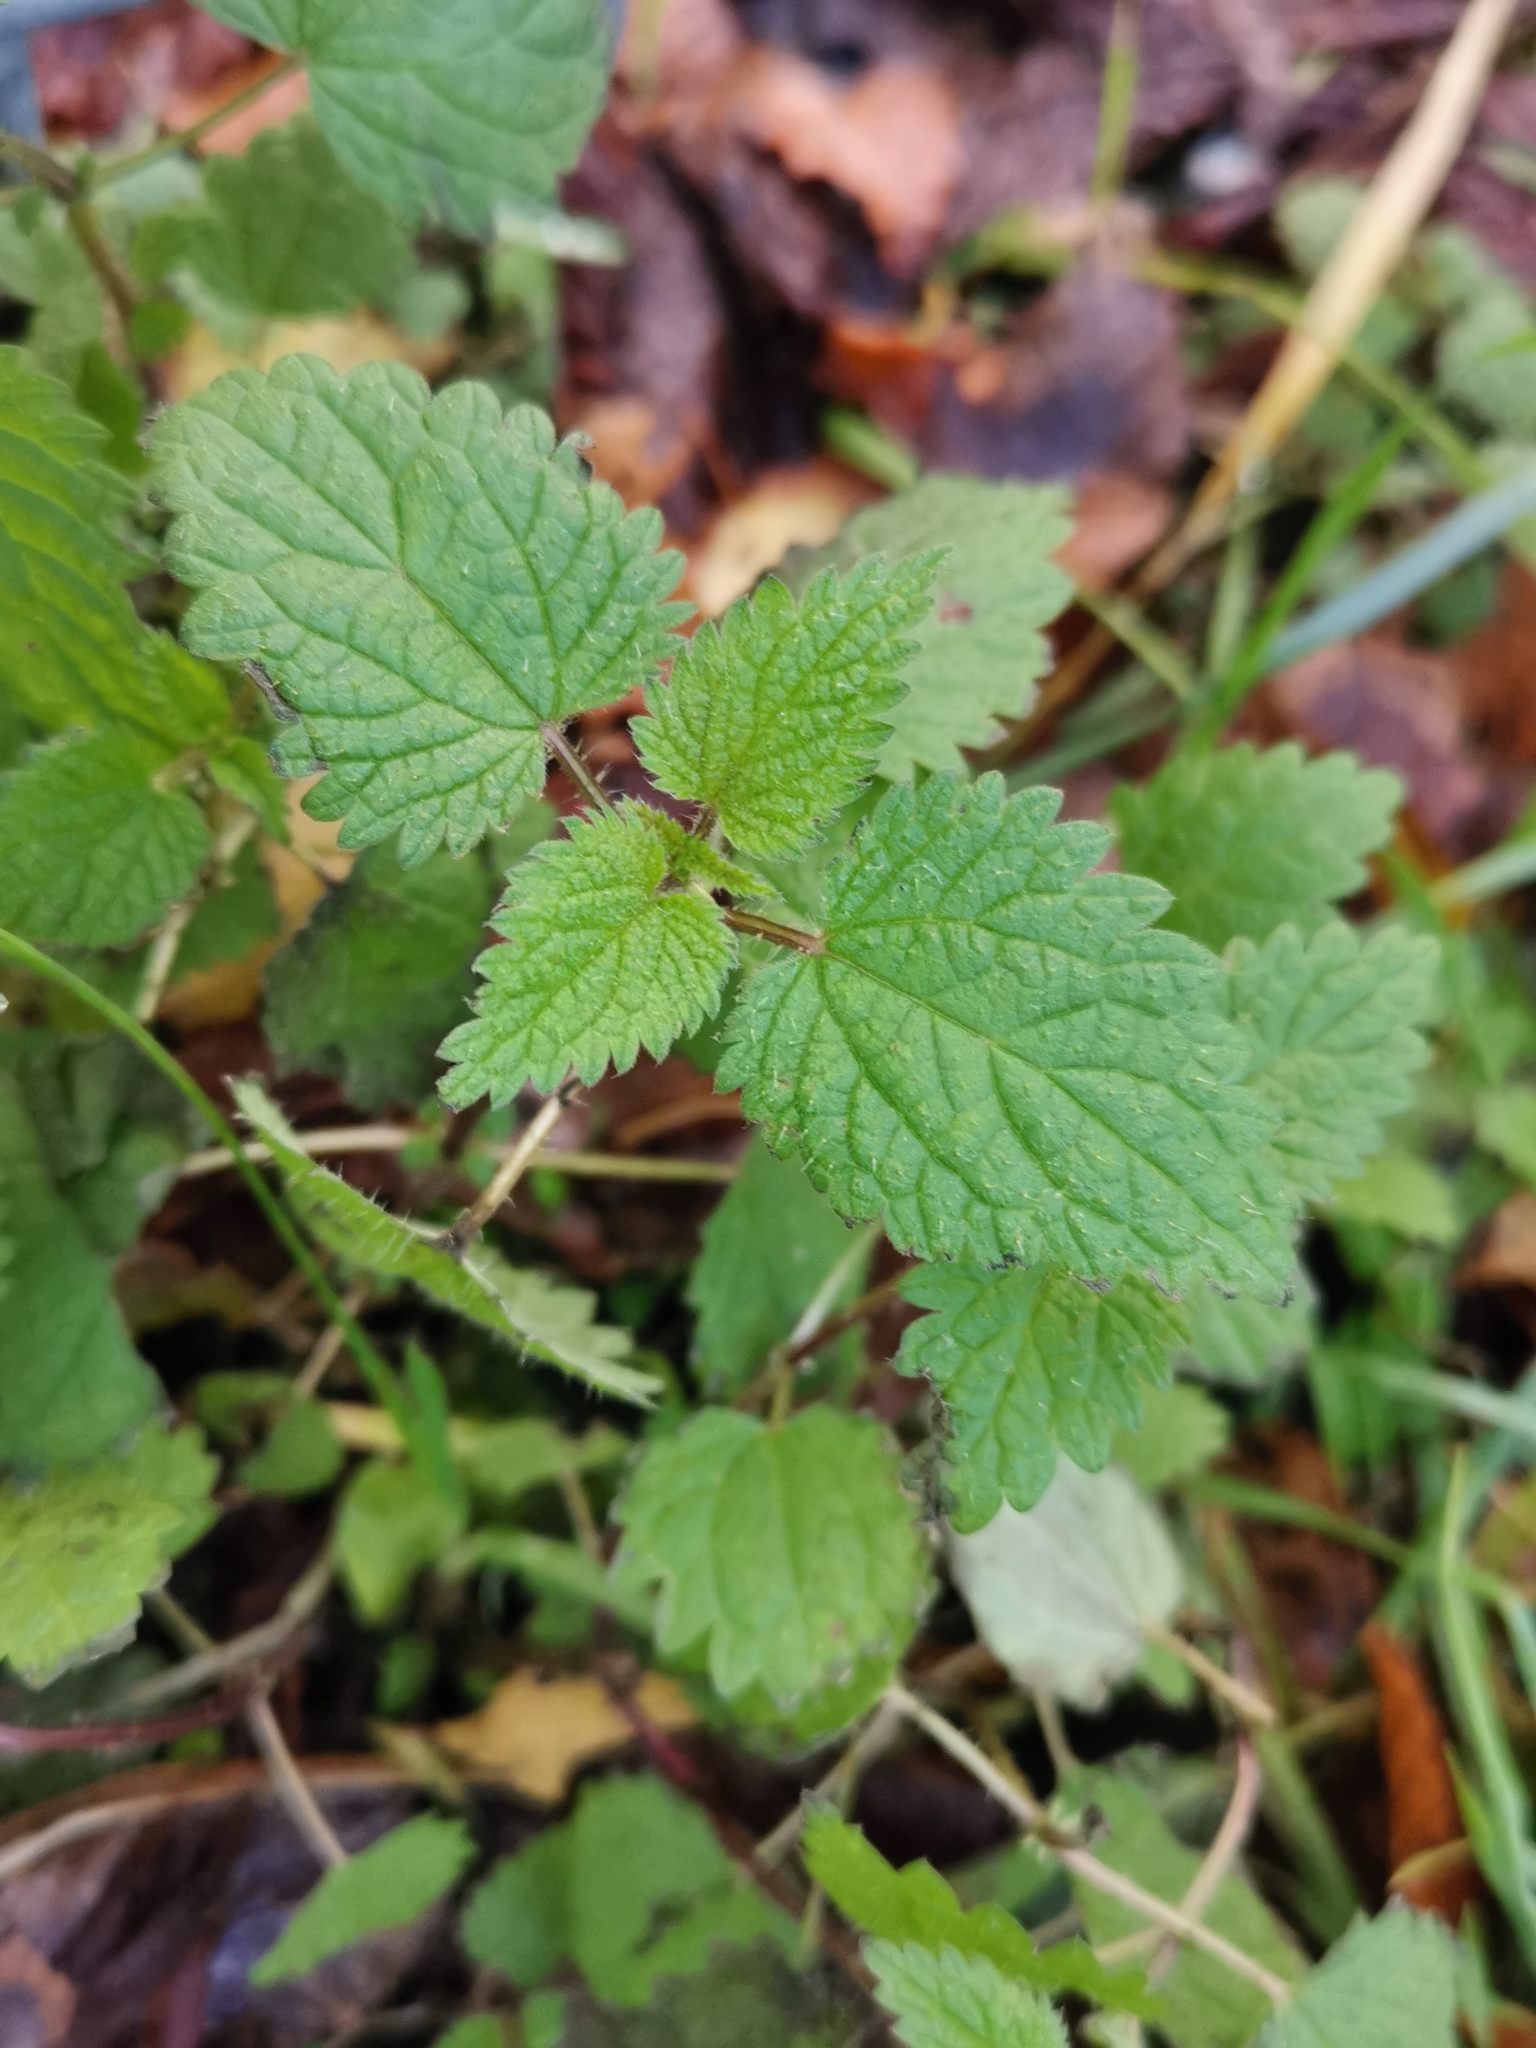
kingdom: Plantae
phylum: Tracheophyta
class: Magnoliopsida
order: Rosales
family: Urticaceae
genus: Urtica
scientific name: Urtica dioica
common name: Common nettle
